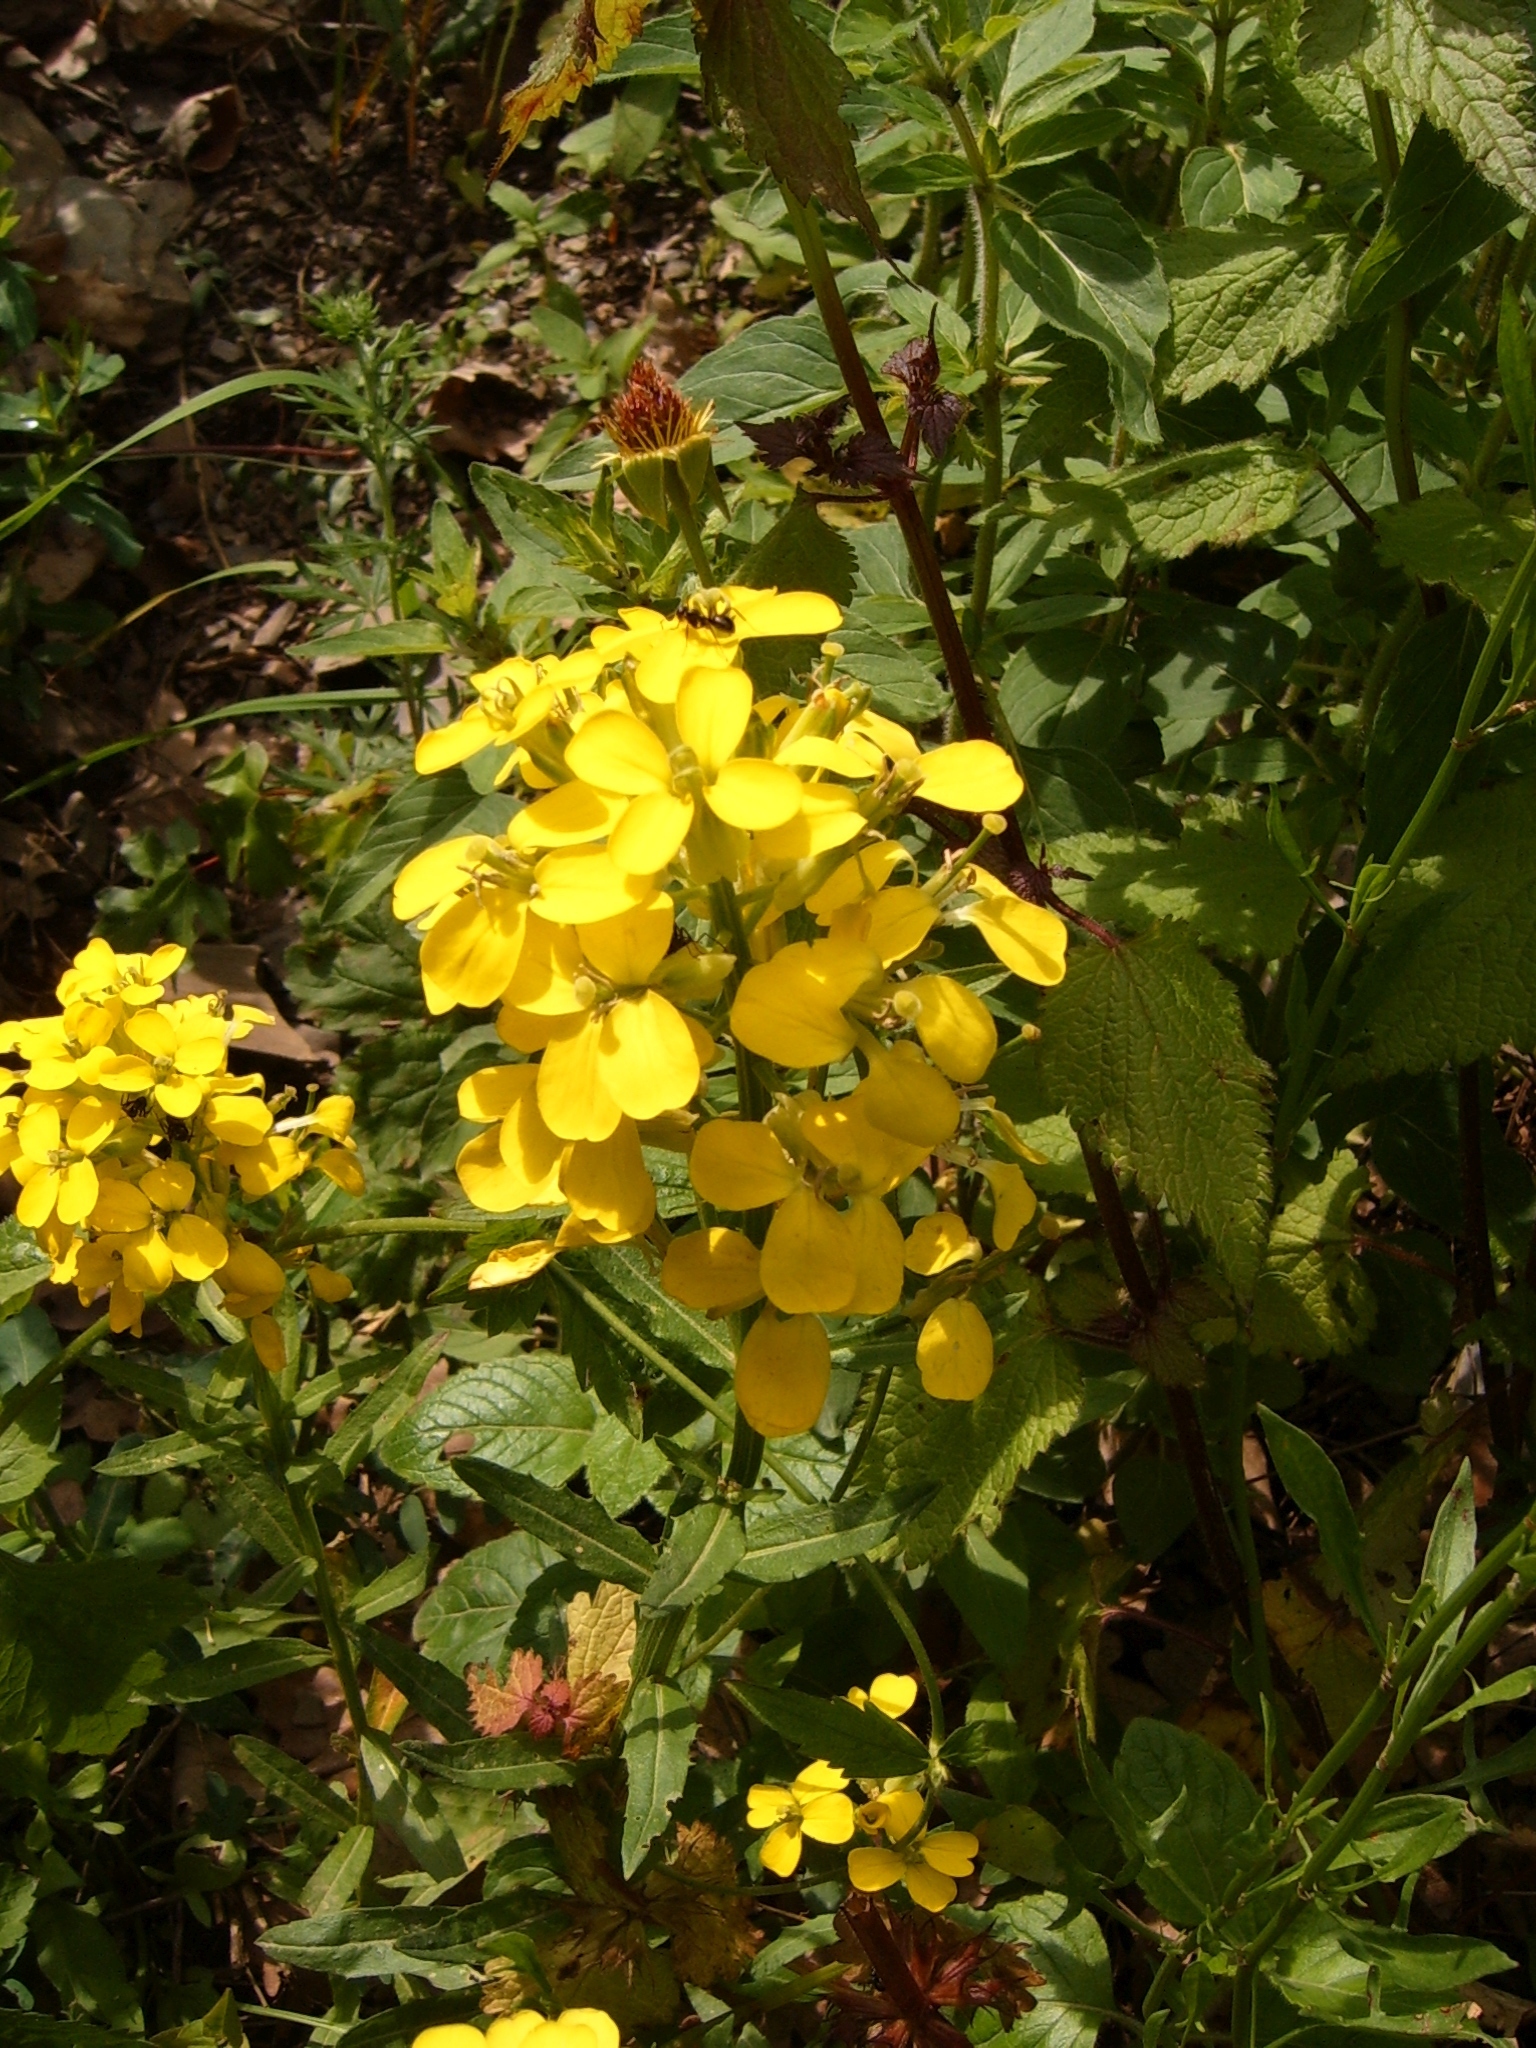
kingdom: Plantae
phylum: Tracheophyta
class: Magnoliopsida
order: Brassicales
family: Brassicaceae
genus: Erysimum
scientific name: Erysimum odoratum
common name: Smelly wallflower
